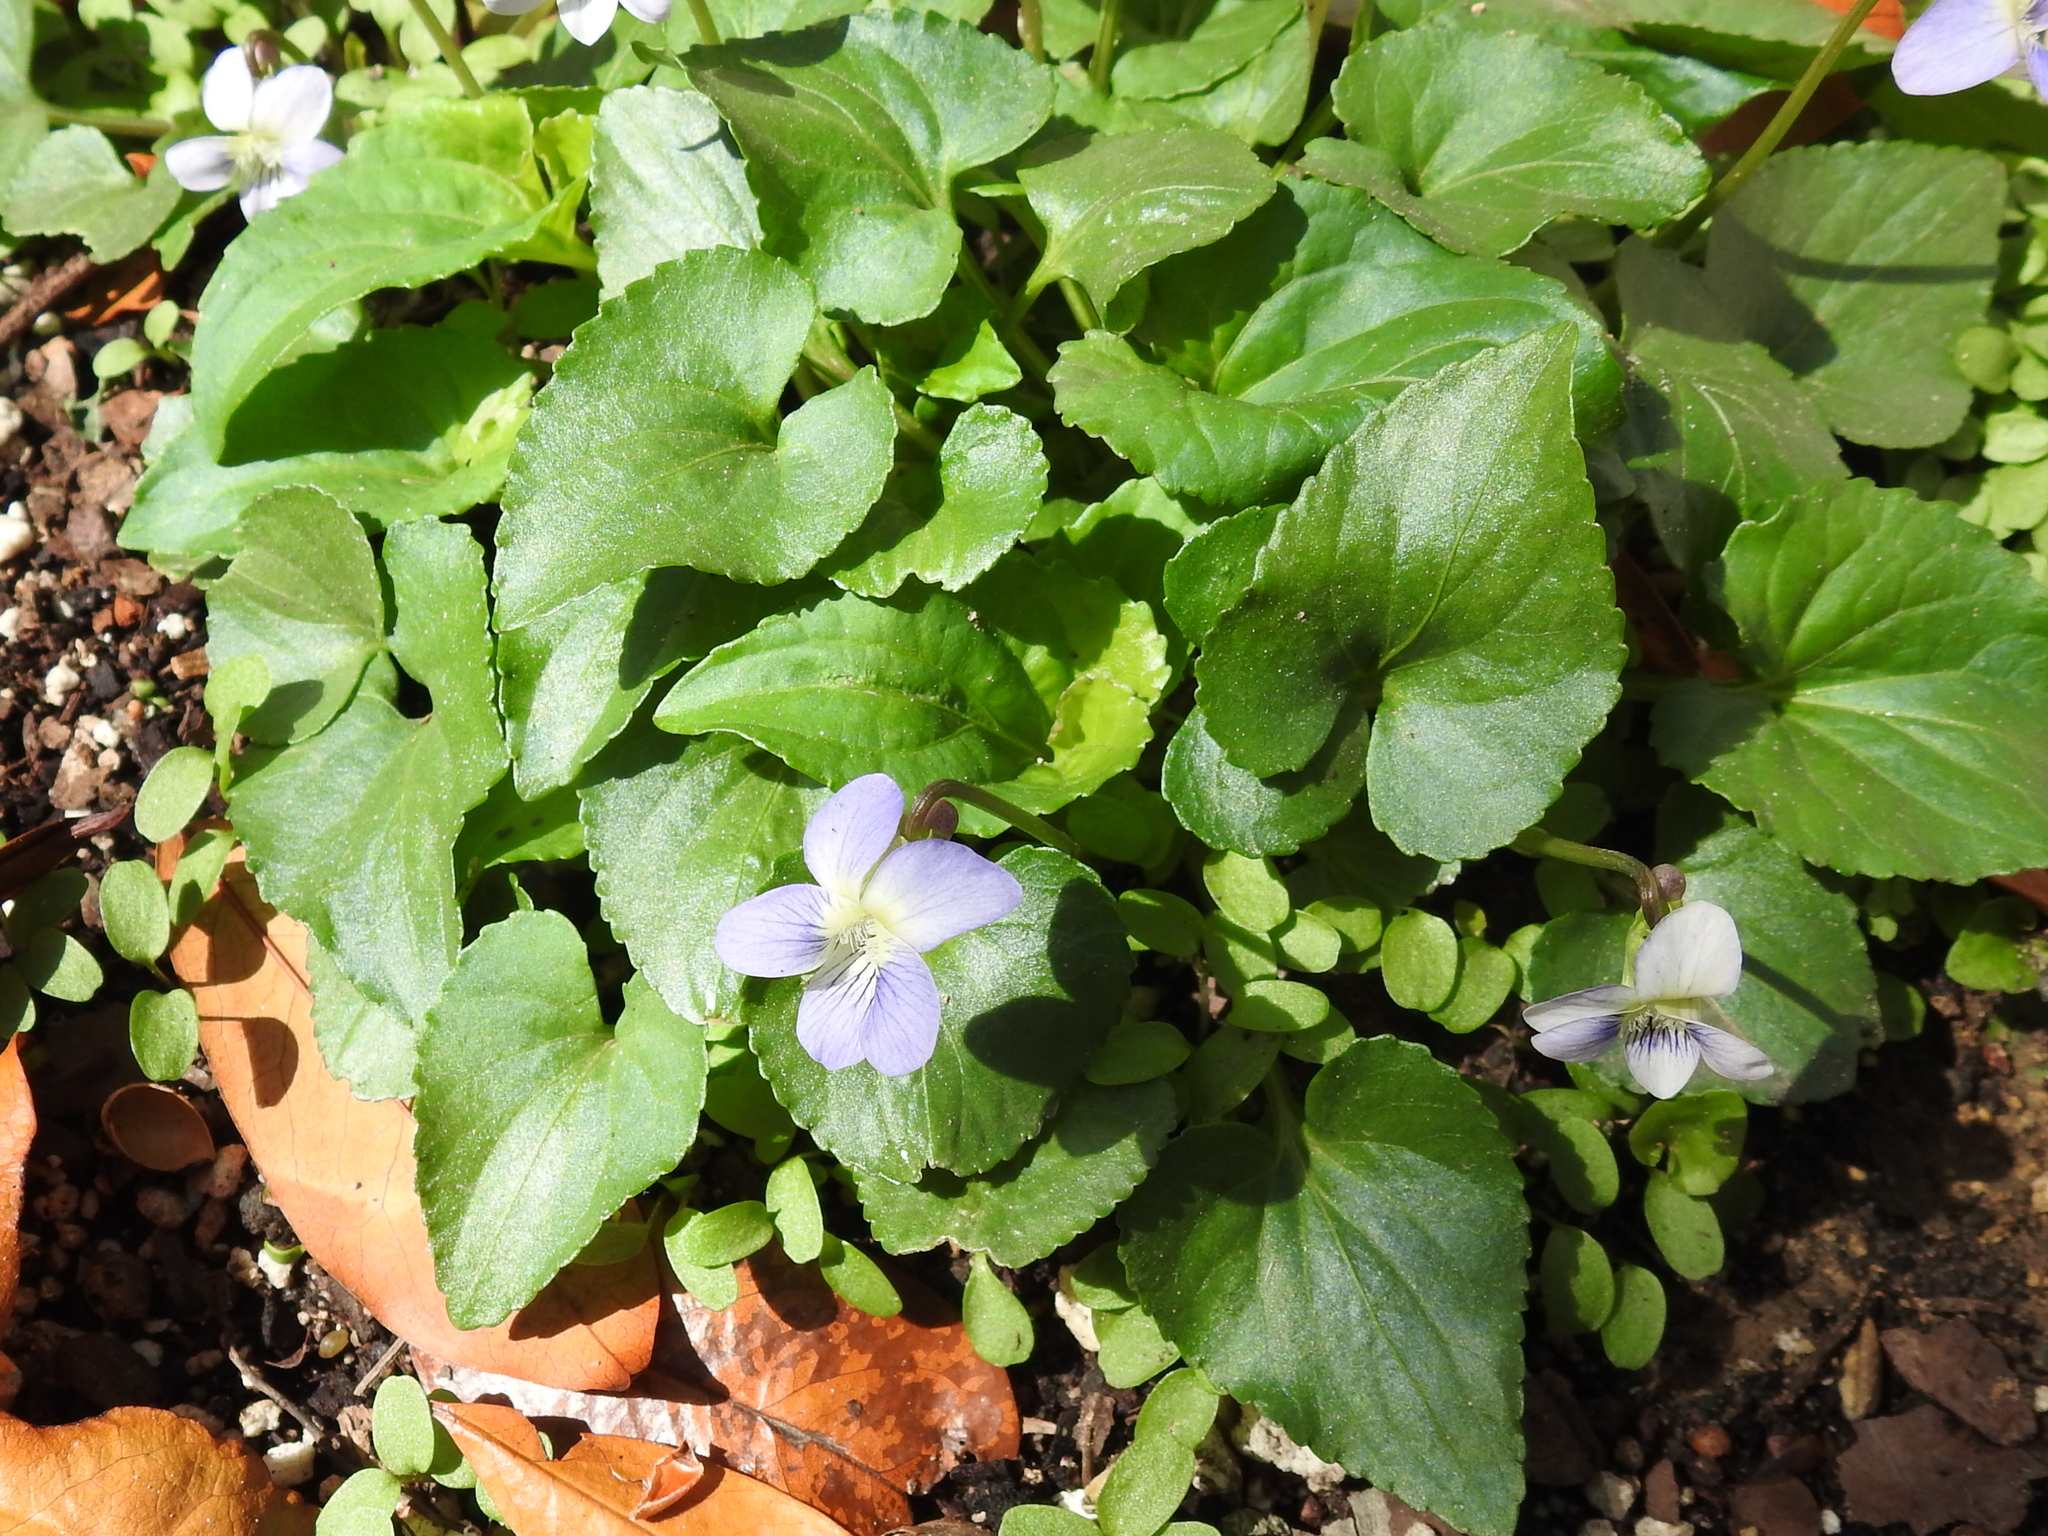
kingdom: Plantae
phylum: Tracheophyta
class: Magnoliopsida
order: Malpighiales
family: Violaceae
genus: Viola
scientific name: Viola missouriensis
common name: Missouri violet
